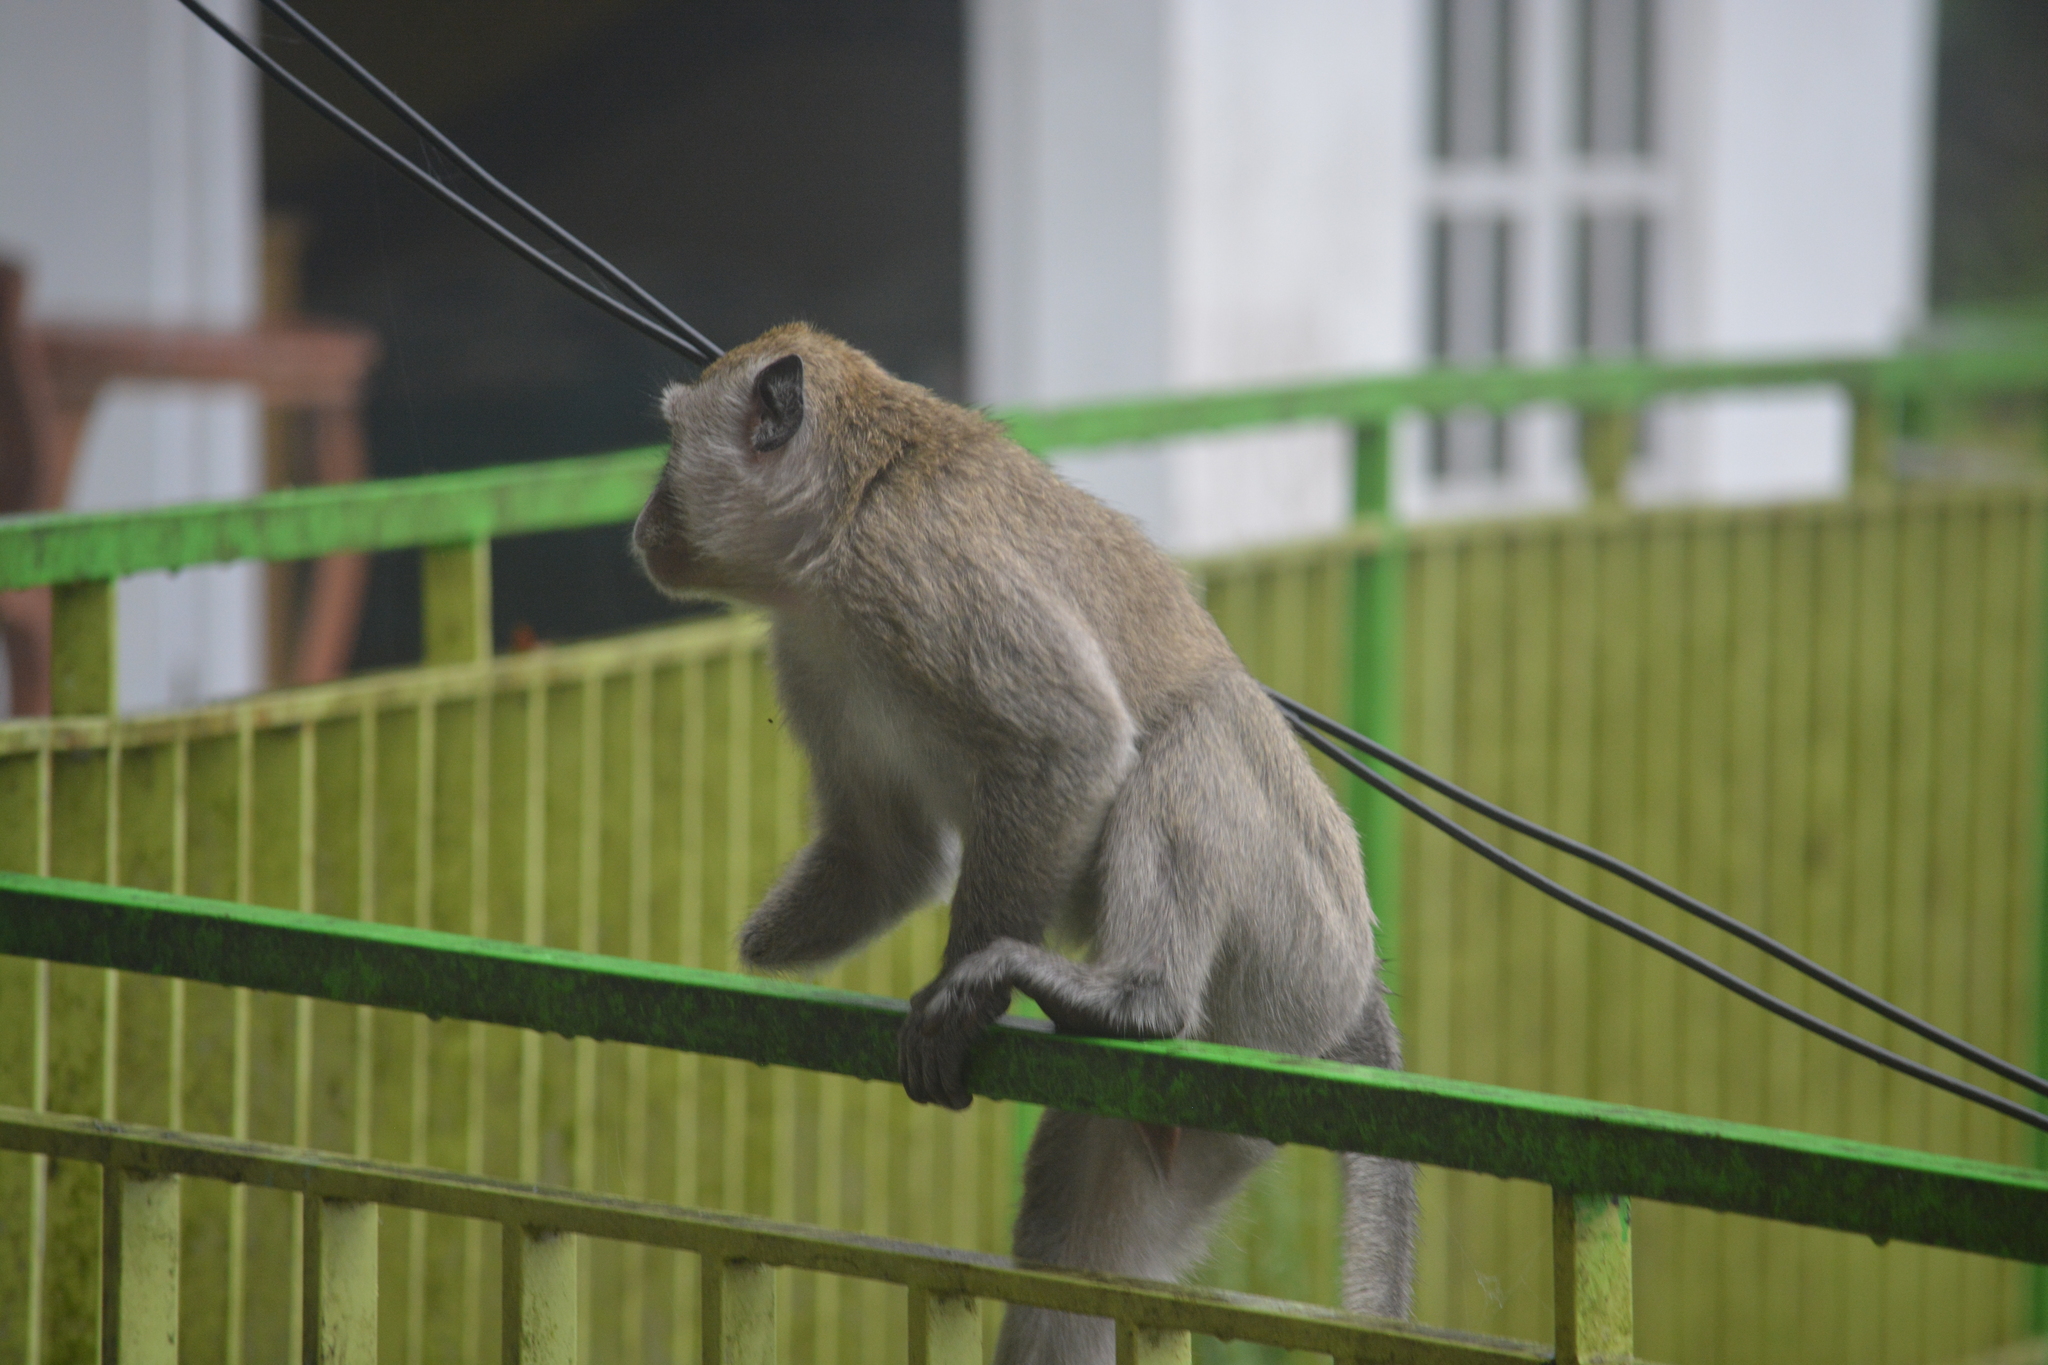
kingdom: Animalia
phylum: Chordata
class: Mammalia
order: Primates
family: Cercopithecidae
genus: Macaca
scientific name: Macaca fascicularis
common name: Crab-eating macaque
